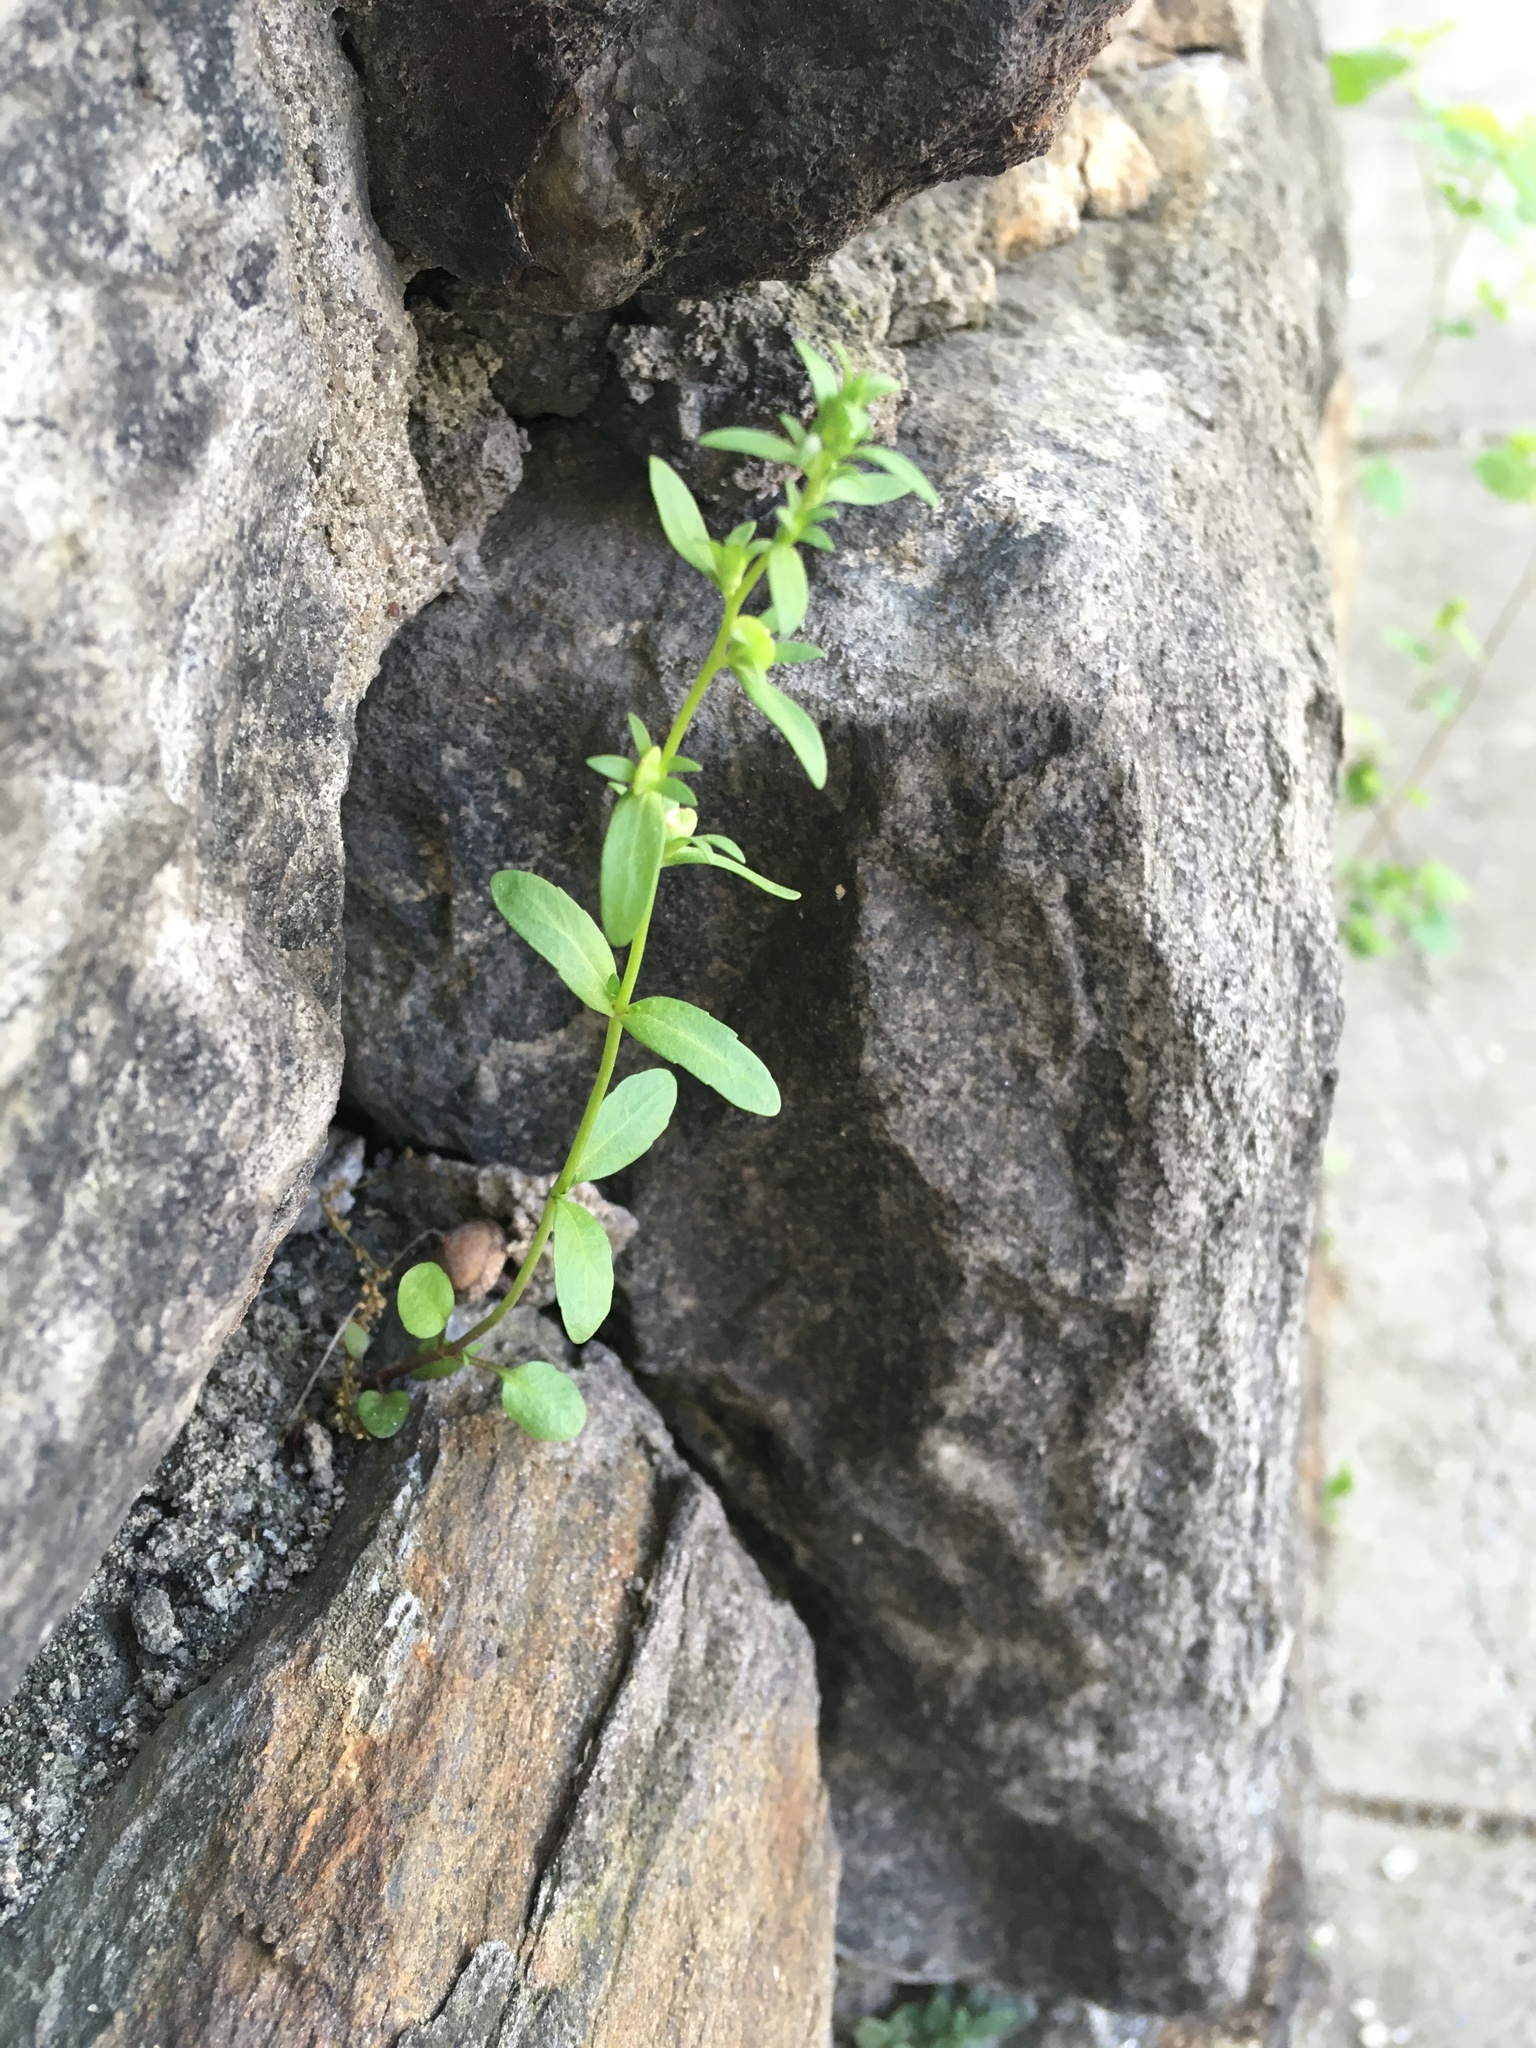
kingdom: Plantae
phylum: Tracheophyta
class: Magnoliopsida
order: Lamiales
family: Plantaginaceae
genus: Veronica
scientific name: Veronica peregrina
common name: Neckweed
